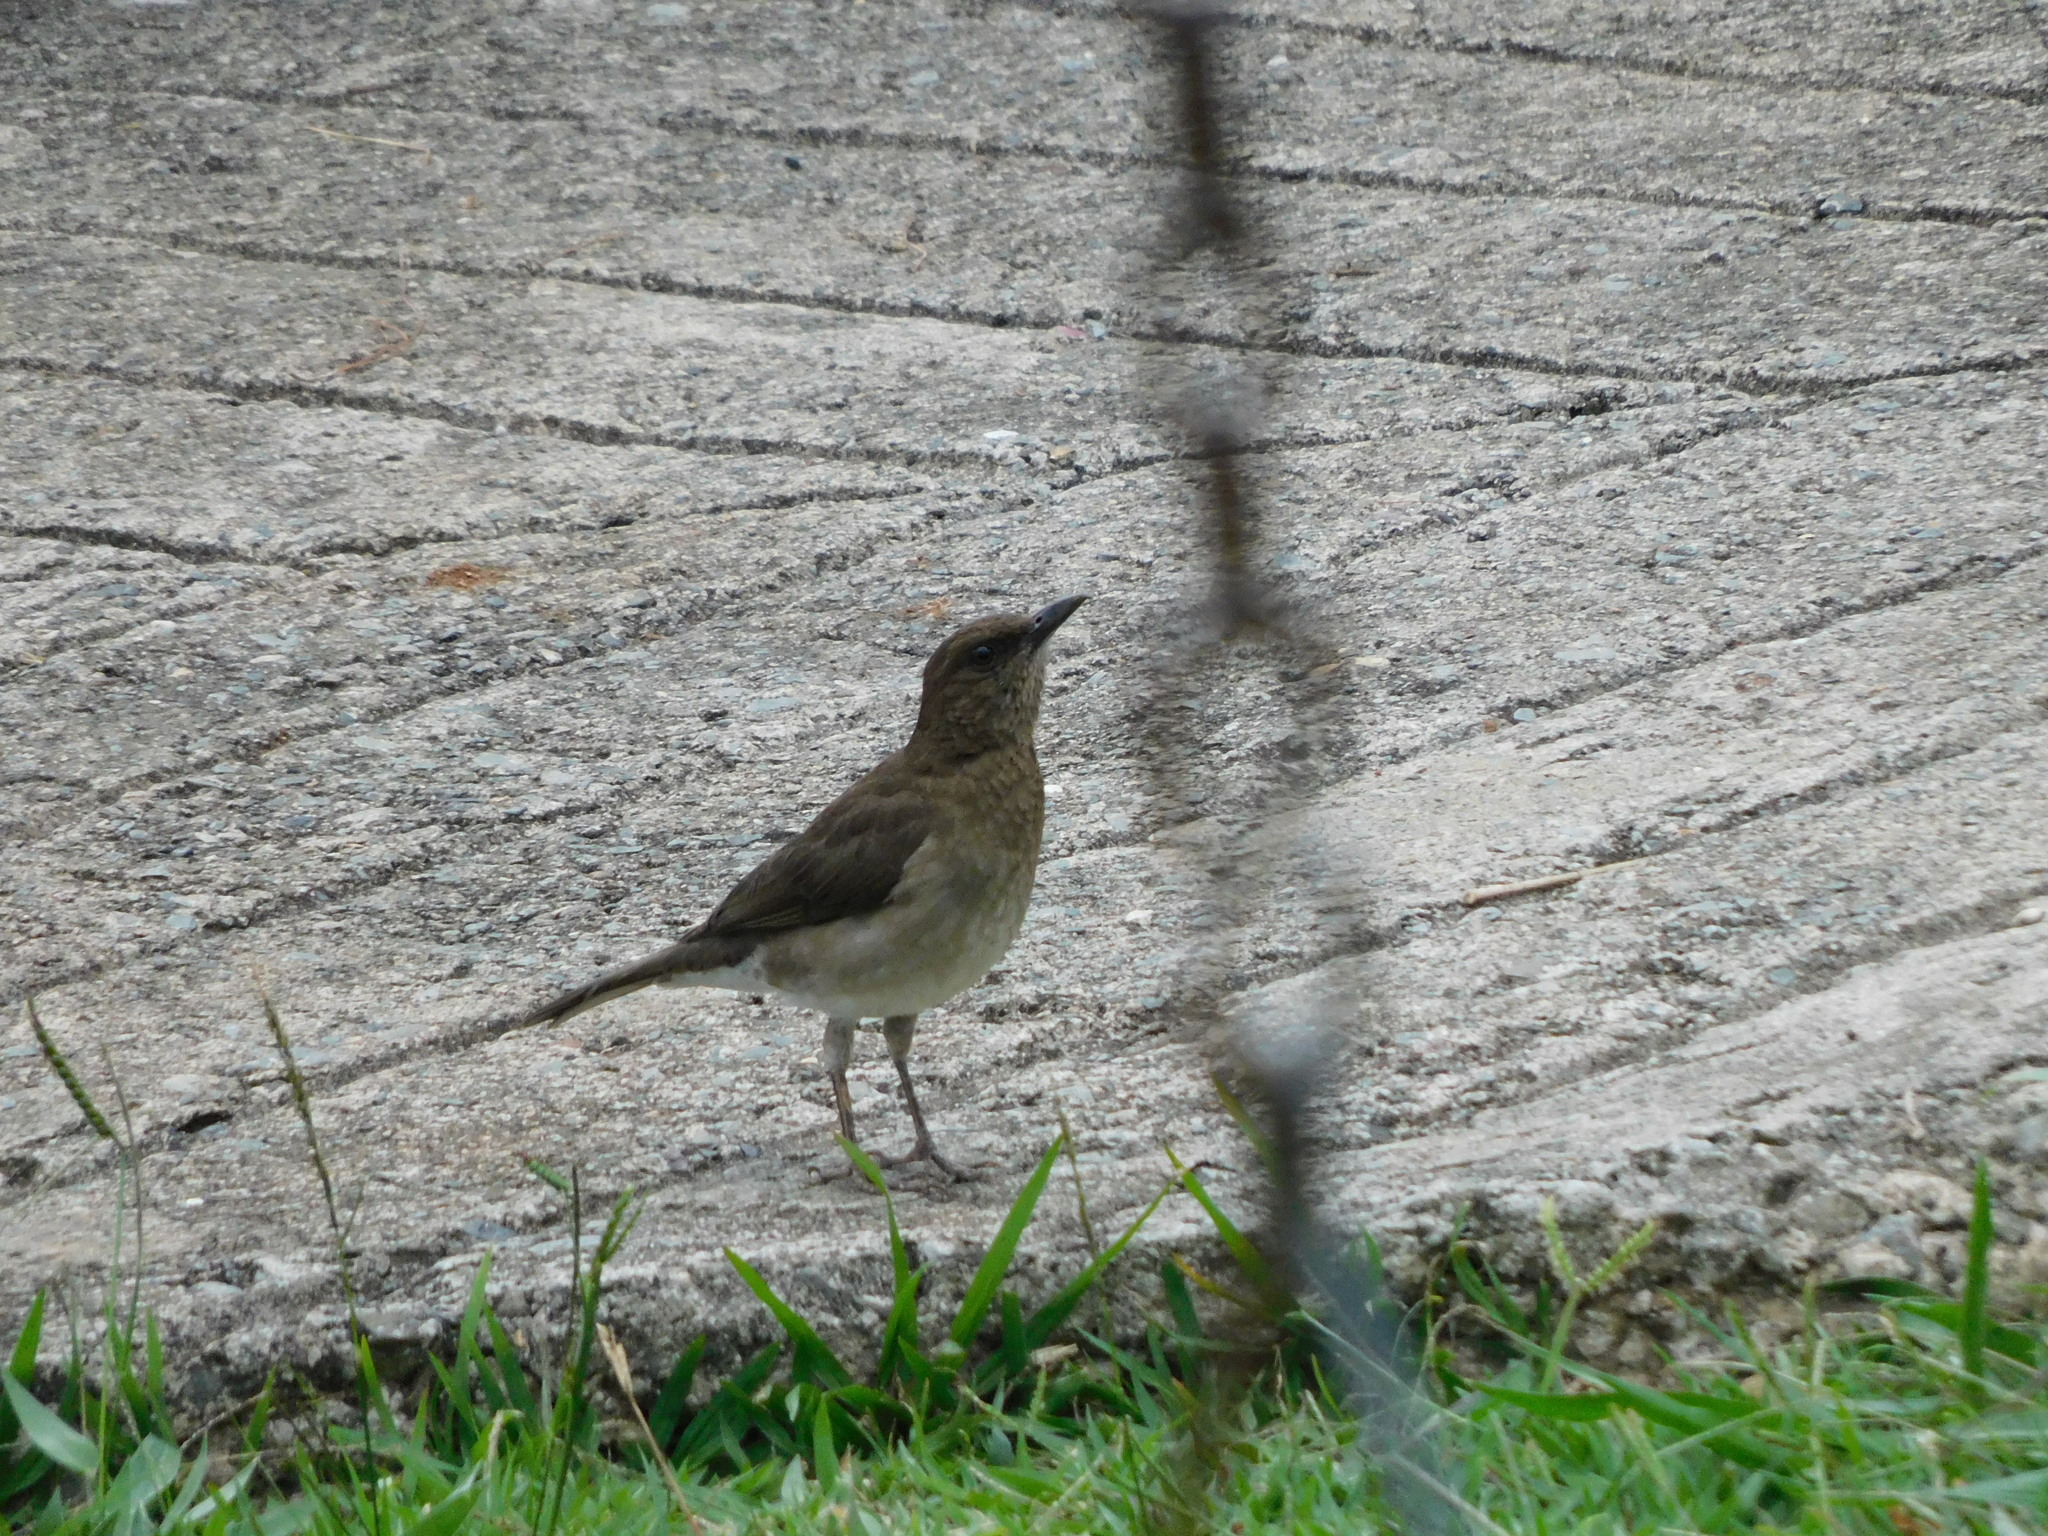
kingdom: Animalia
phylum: Chordata
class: Aves
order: Passeriformes
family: Turdidae
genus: Turdus
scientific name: Turdus ignobilis
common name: Black-billed thrush
